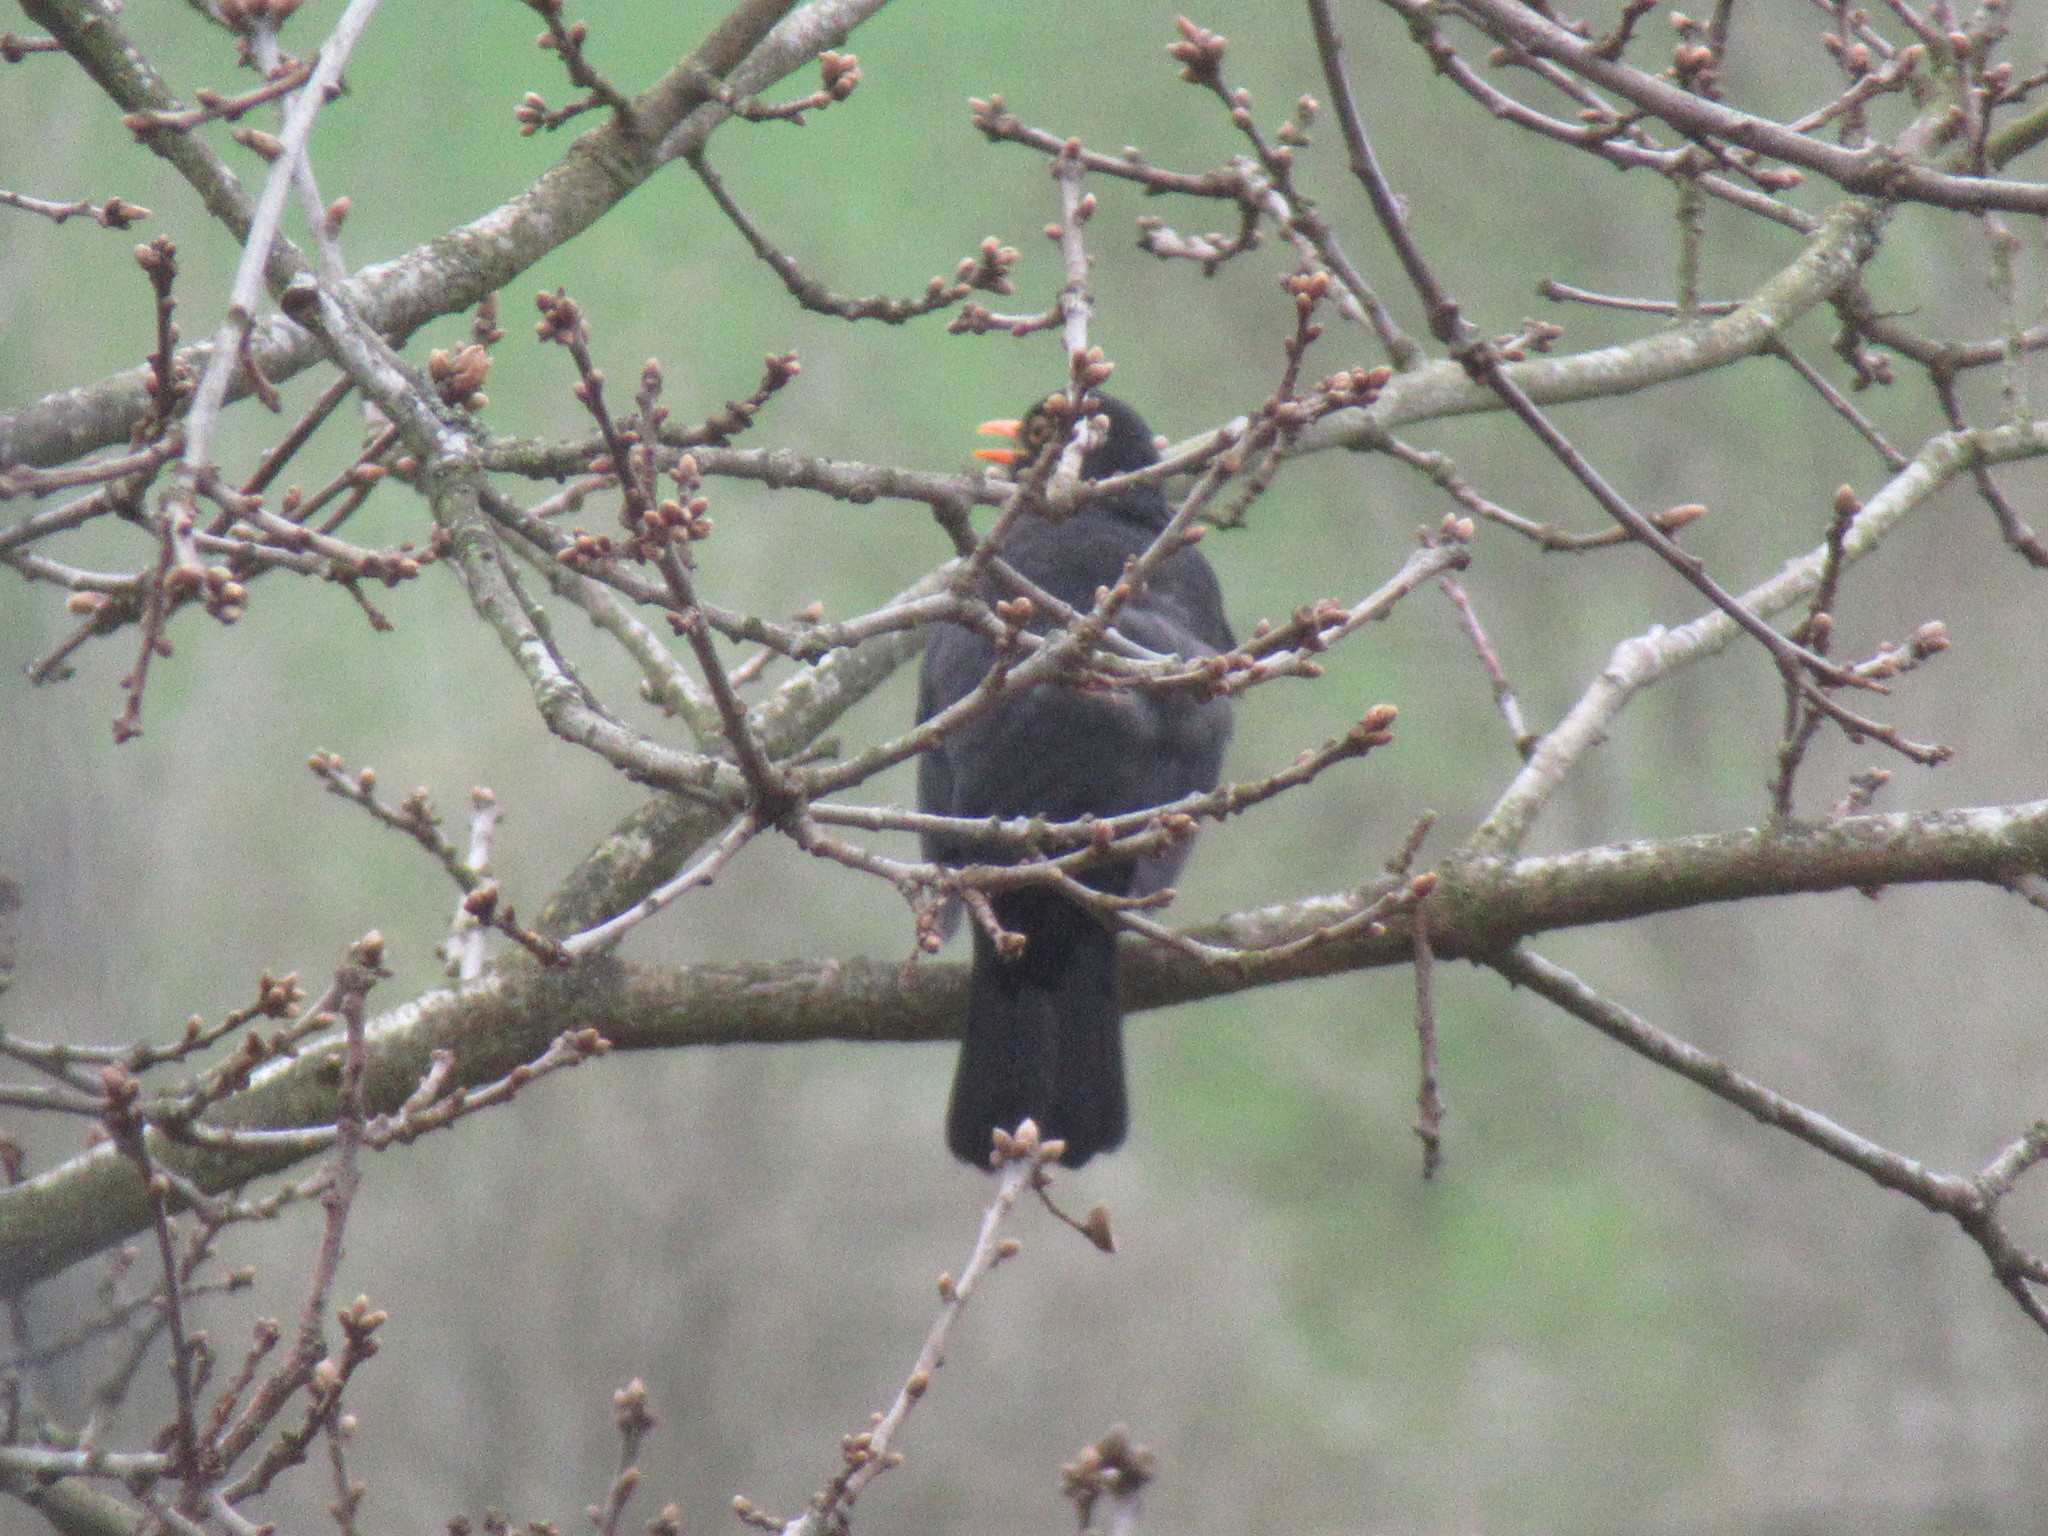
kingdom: Animalia
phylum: Chordata
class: Aves
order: Passeriformes
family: Turdidae
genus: Turdus
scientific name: Turdus merula
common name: Common blackbird
